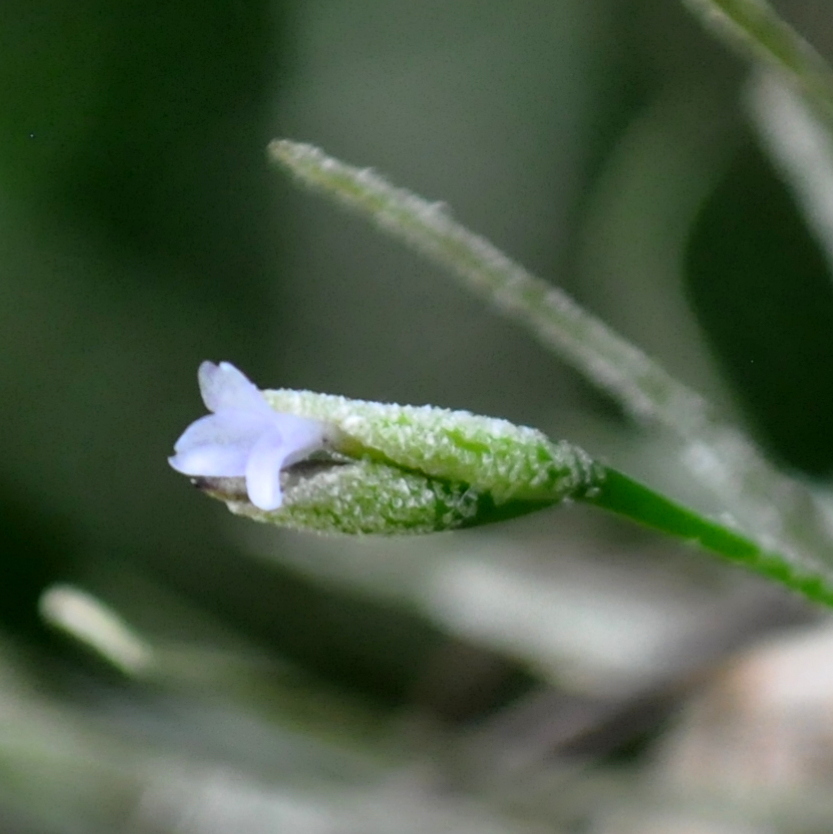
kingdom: Plantae
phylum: Tracheophyta
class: Liliopsida
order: Poales
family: Bromeliaceae
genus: Tillandsia
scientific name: Tillandsia recurvata
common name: Small ballmoss
